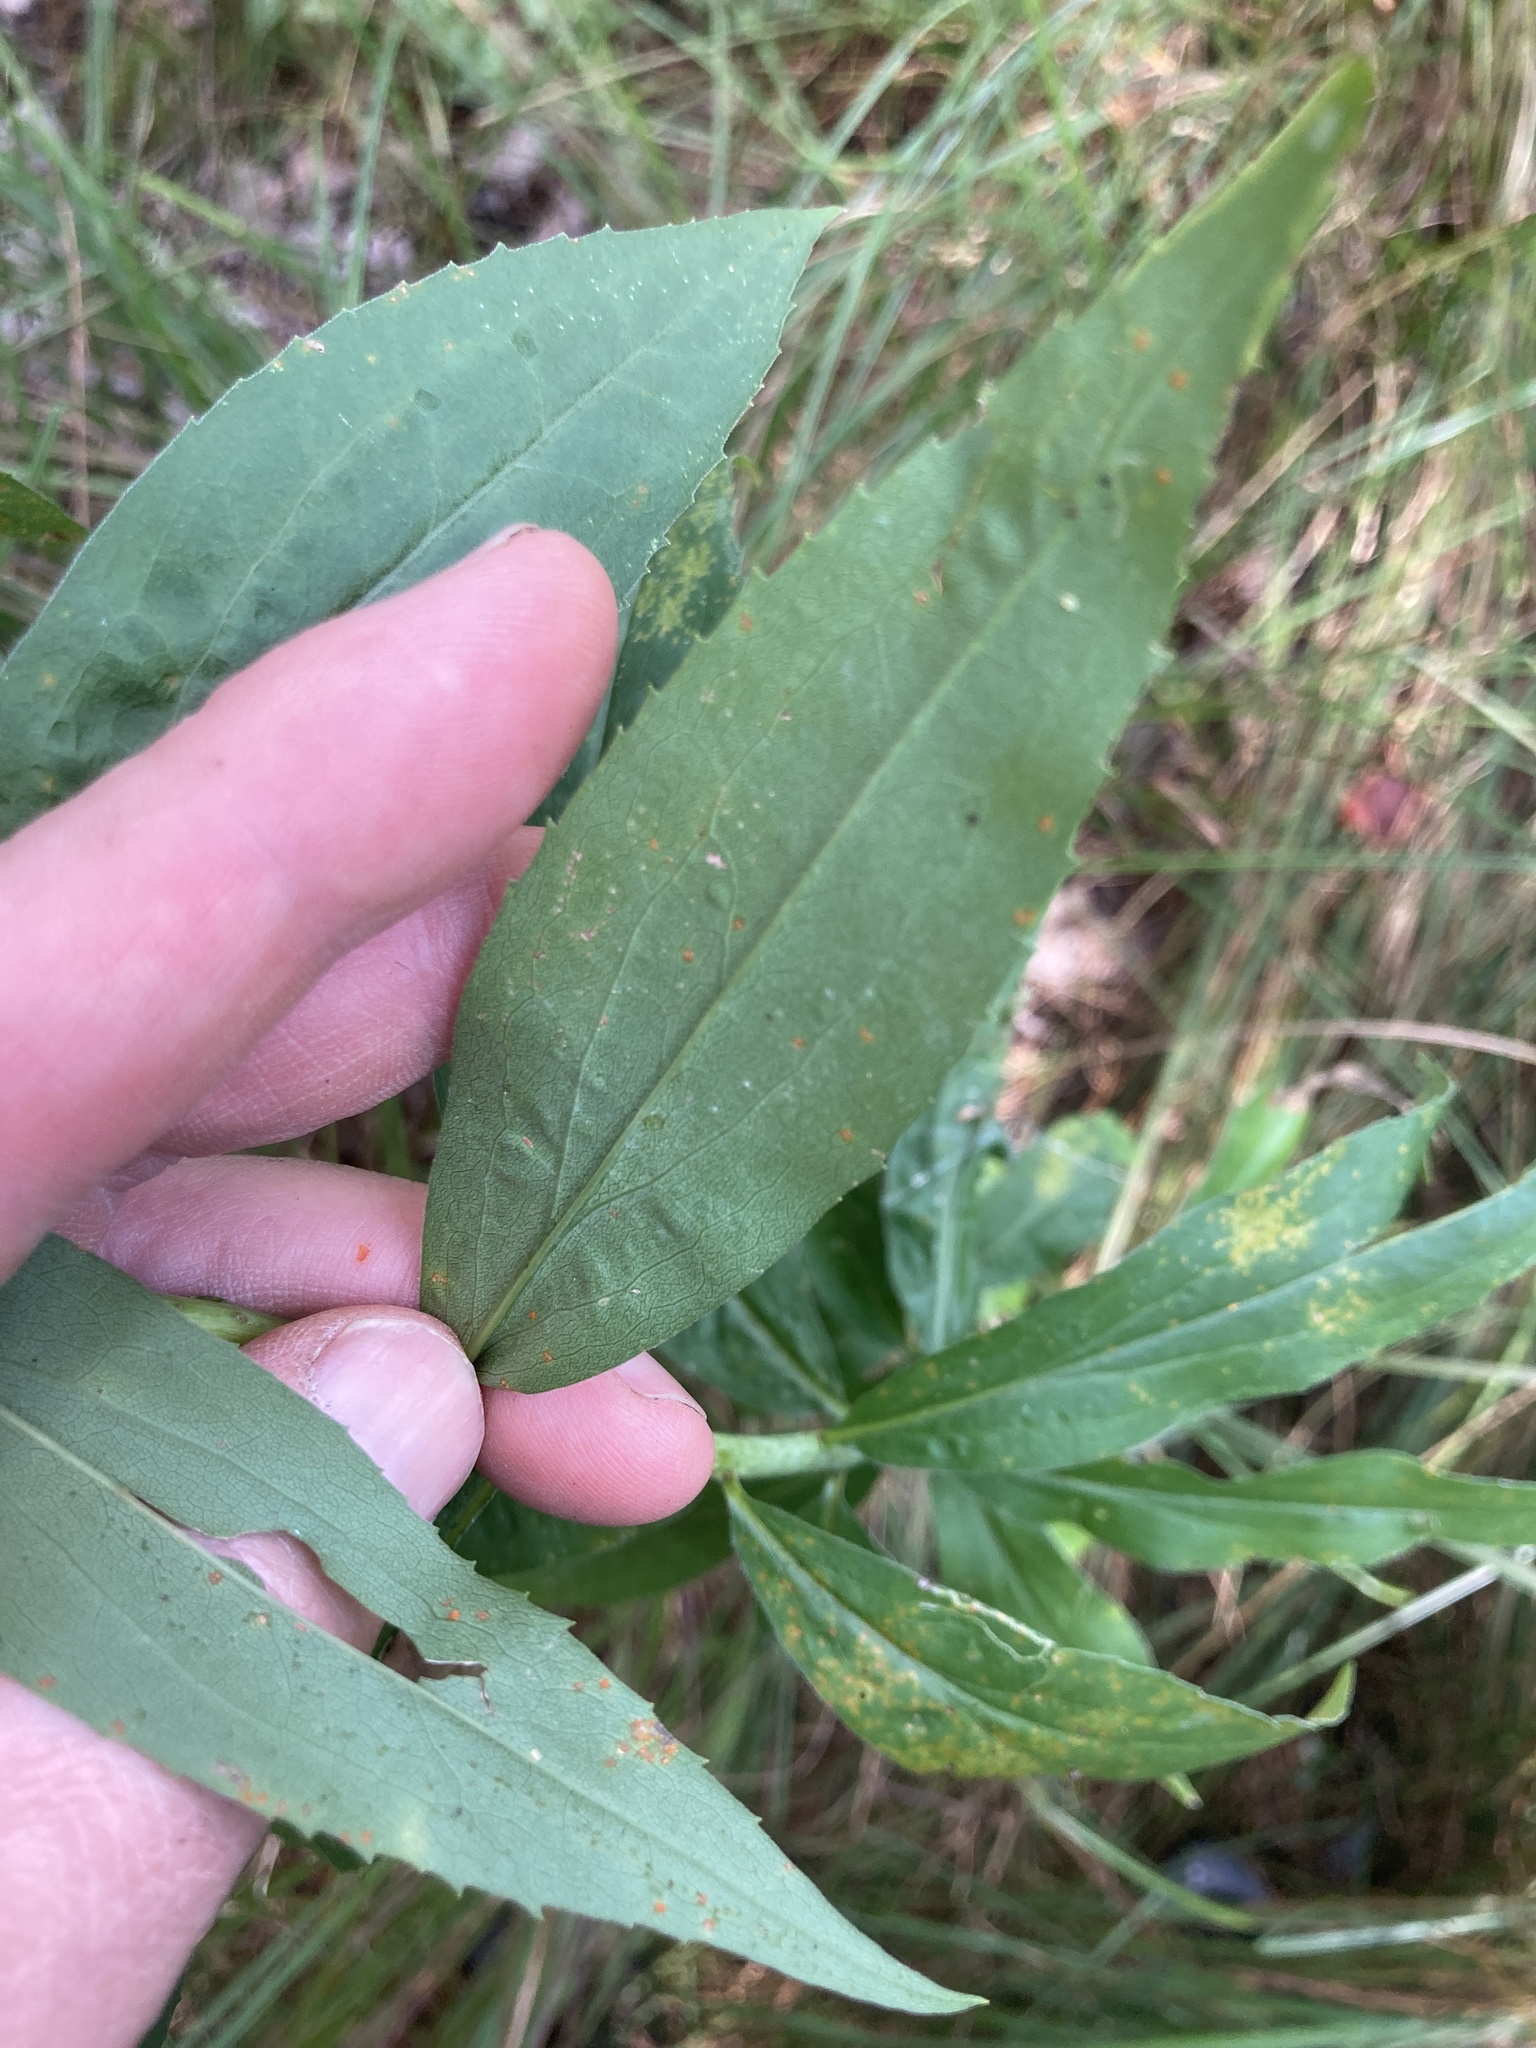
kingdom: Plantae
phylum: Tracheophyta
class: Magnoliopsida
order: Asterales
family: Asteraceae
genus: Solidago
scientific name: Solidago gigantea
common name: Giant goldenrod
